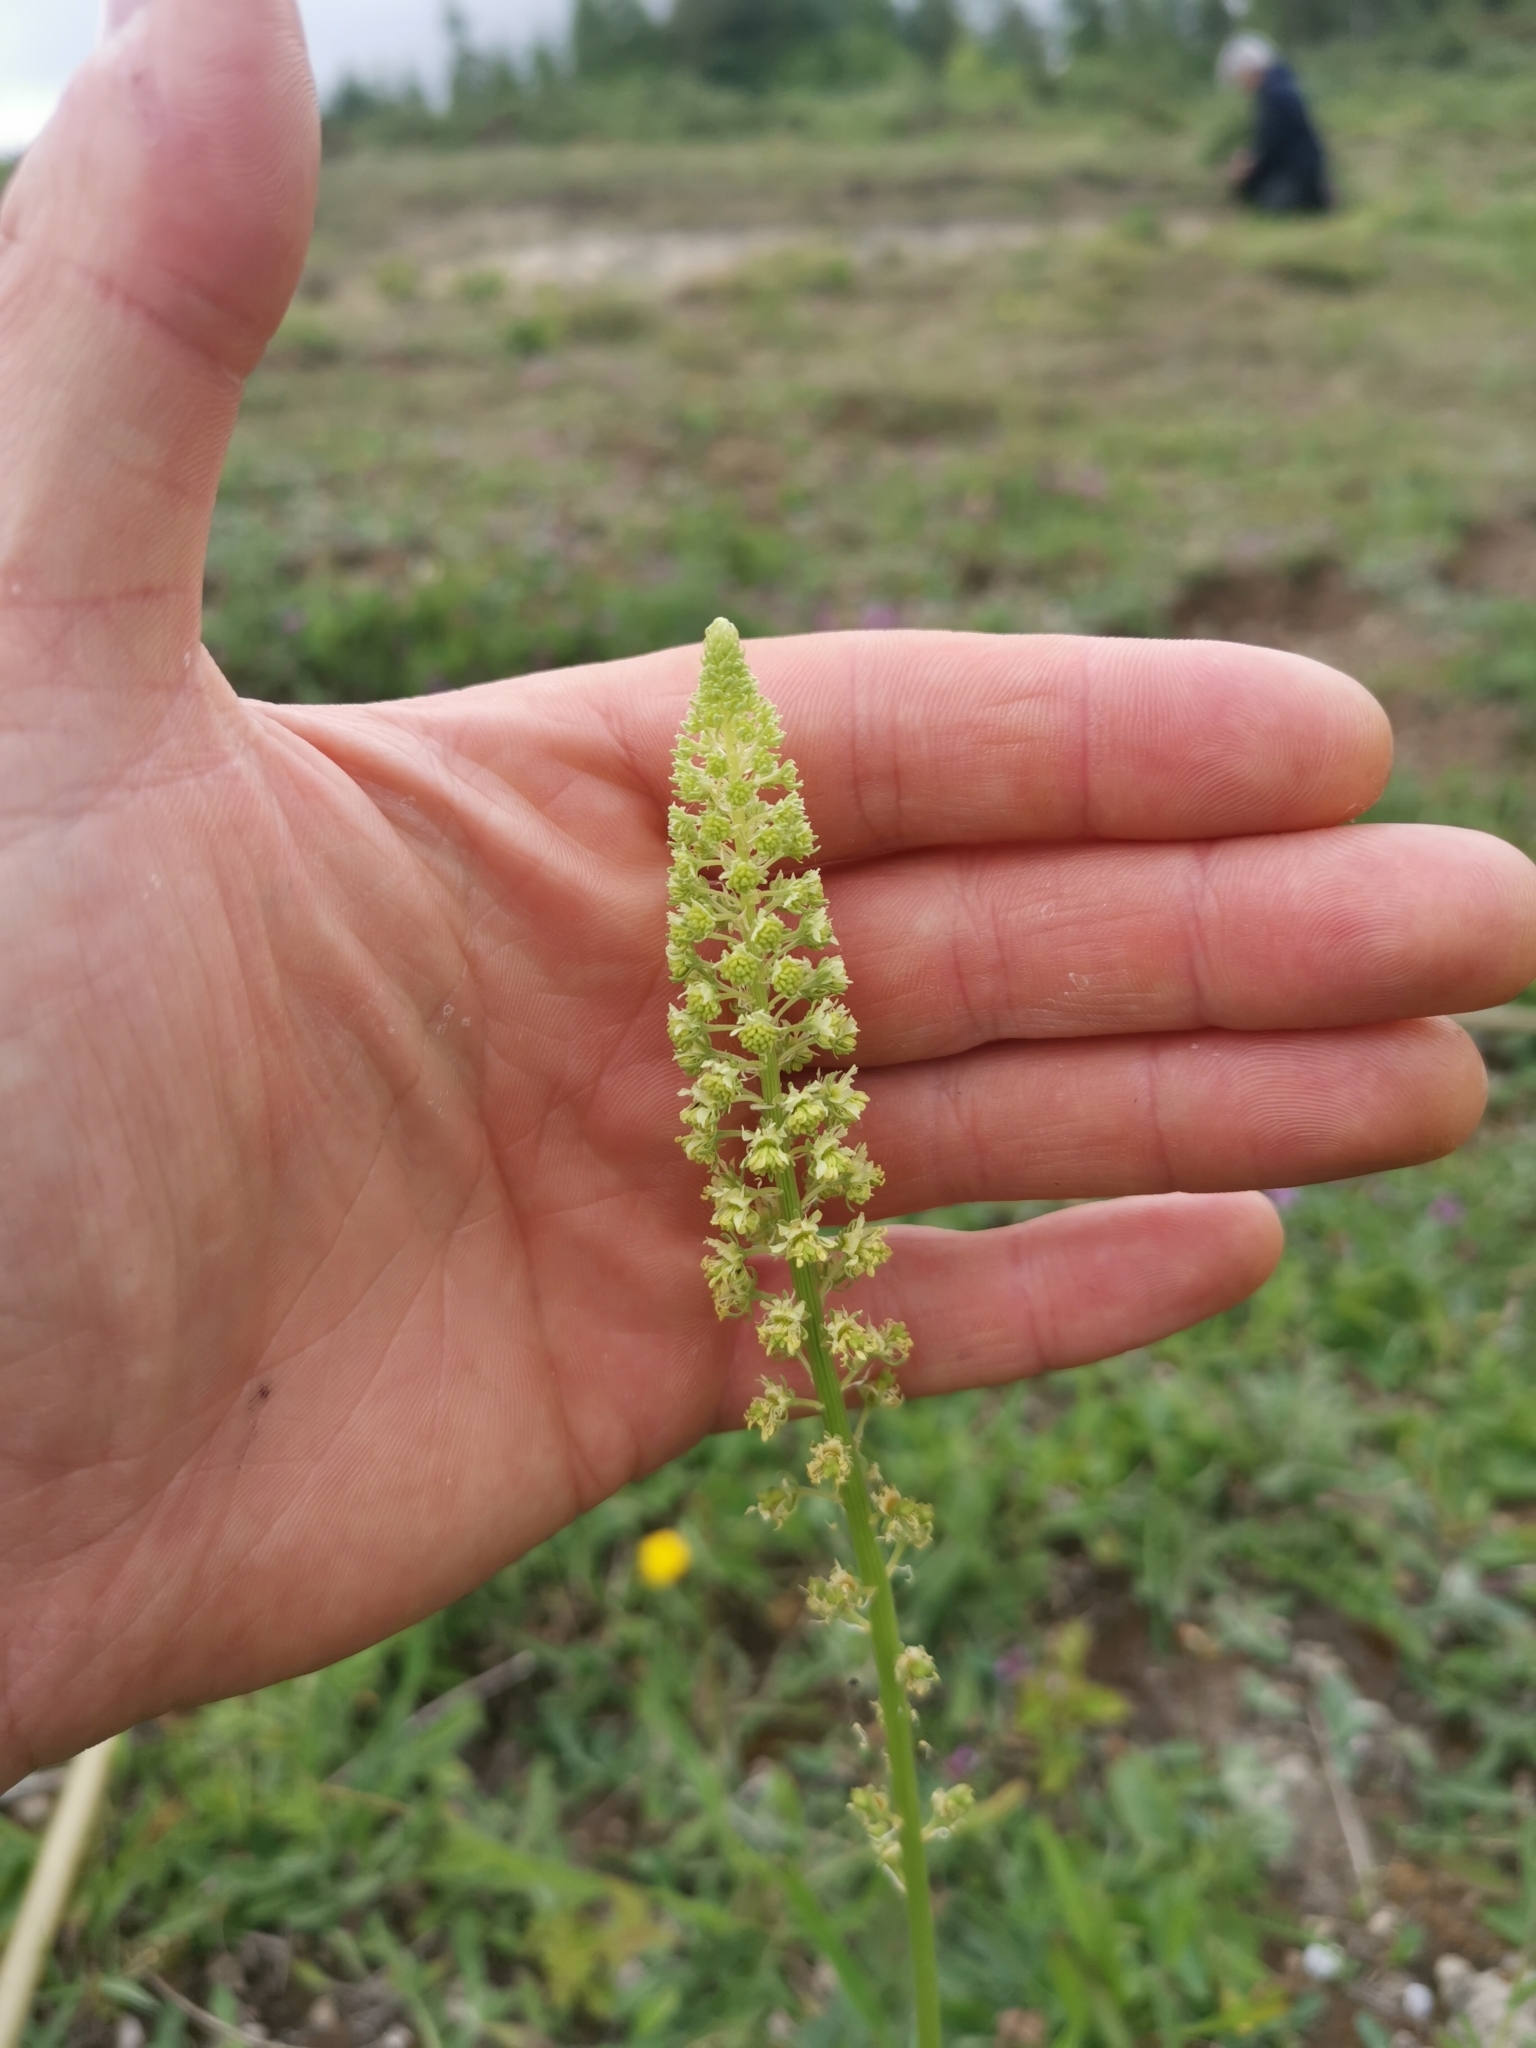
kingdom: Plantae
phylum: Tracheophyta
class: Magnoliopsida
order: Brassicales
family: Resedaceae
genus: Reseda
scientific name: Reseda lutea
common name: Wild mignonette
